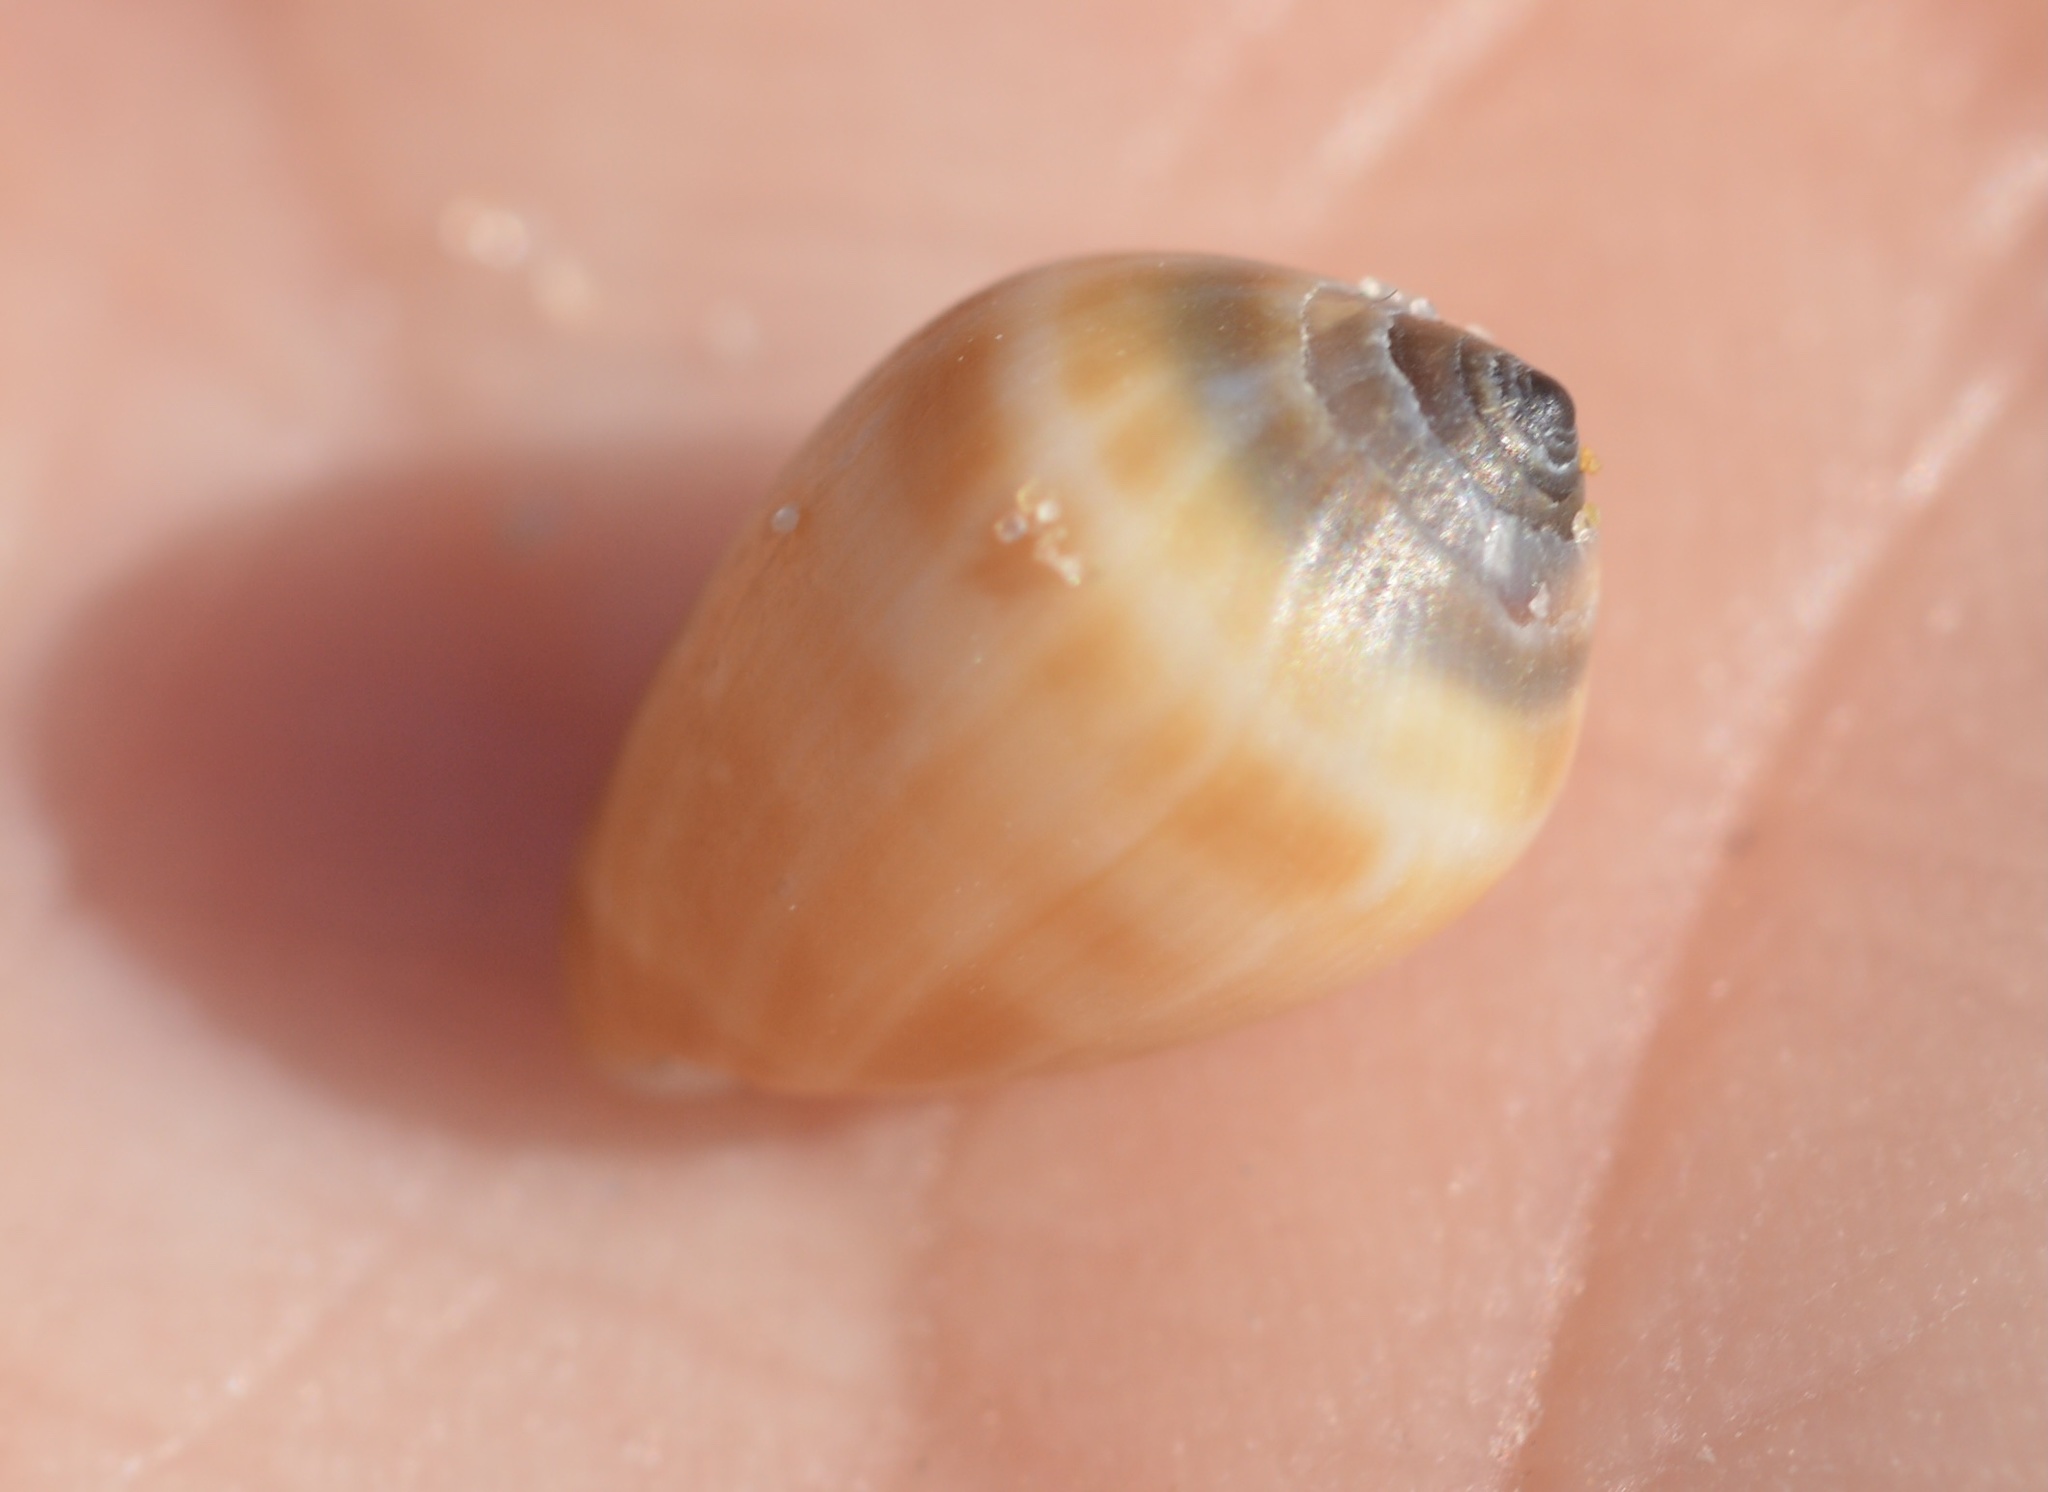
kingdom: Animalia
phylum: Mollusca
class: Gastropoda
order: Ellobiida
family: Ellobiidae
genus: Melampus
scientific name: Melampus olivaceus
